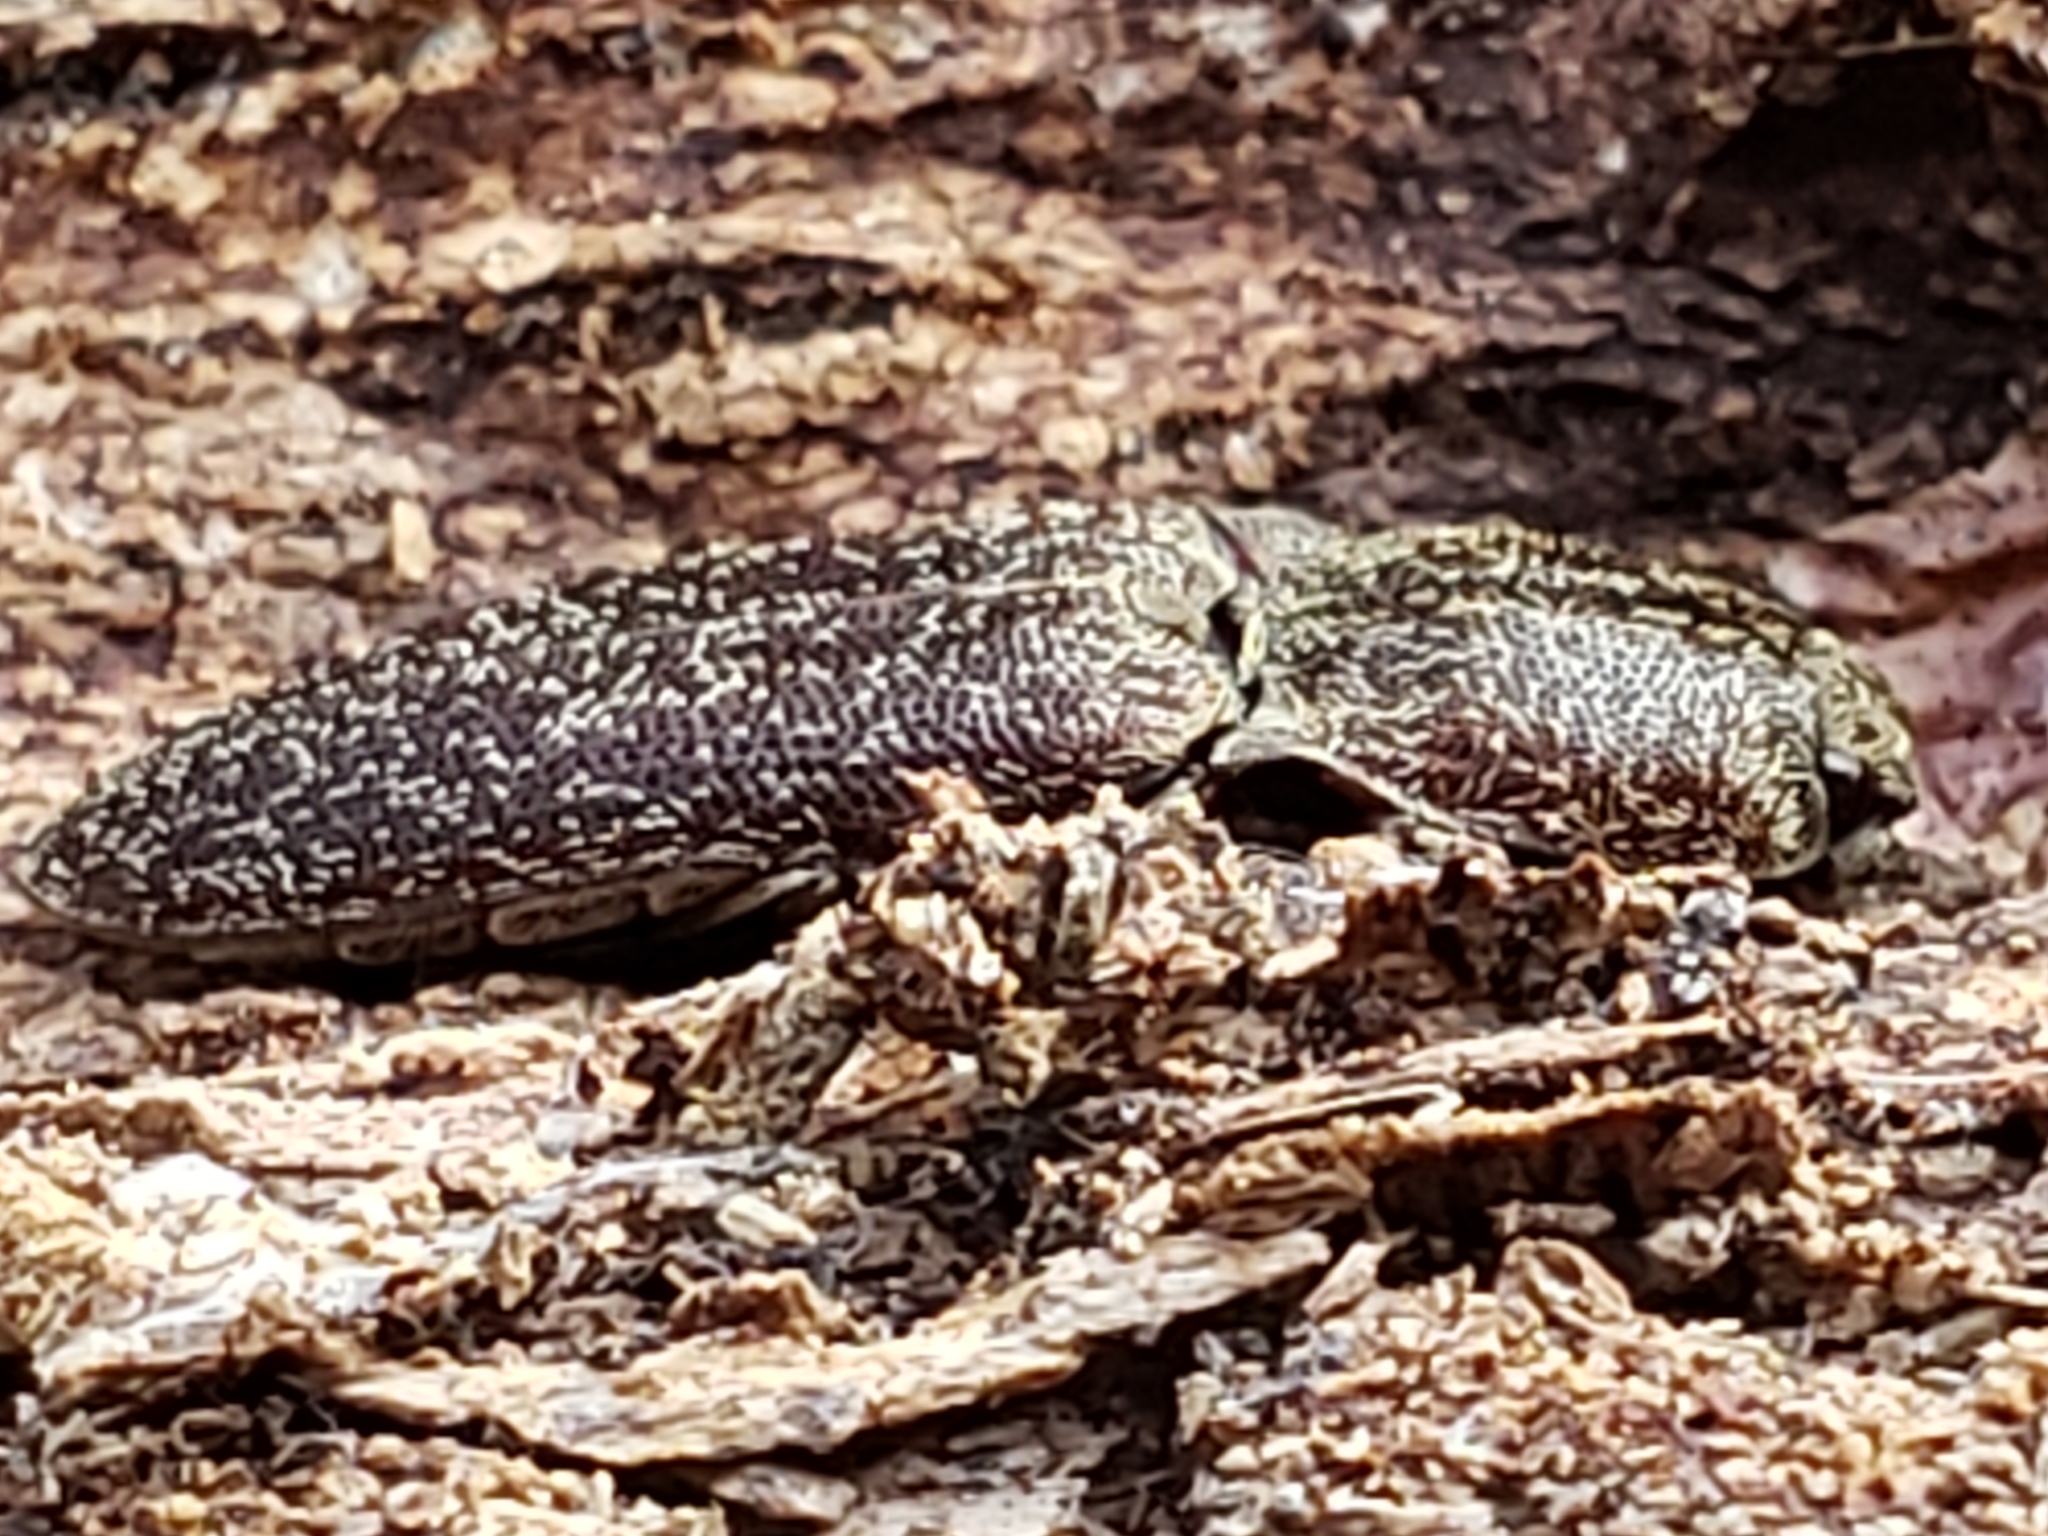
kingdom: Animalia
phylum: Arthropoda
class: Insecta
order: Coleoptera
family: Elateridae
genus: Lacon
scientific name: Lacon impressicollis
